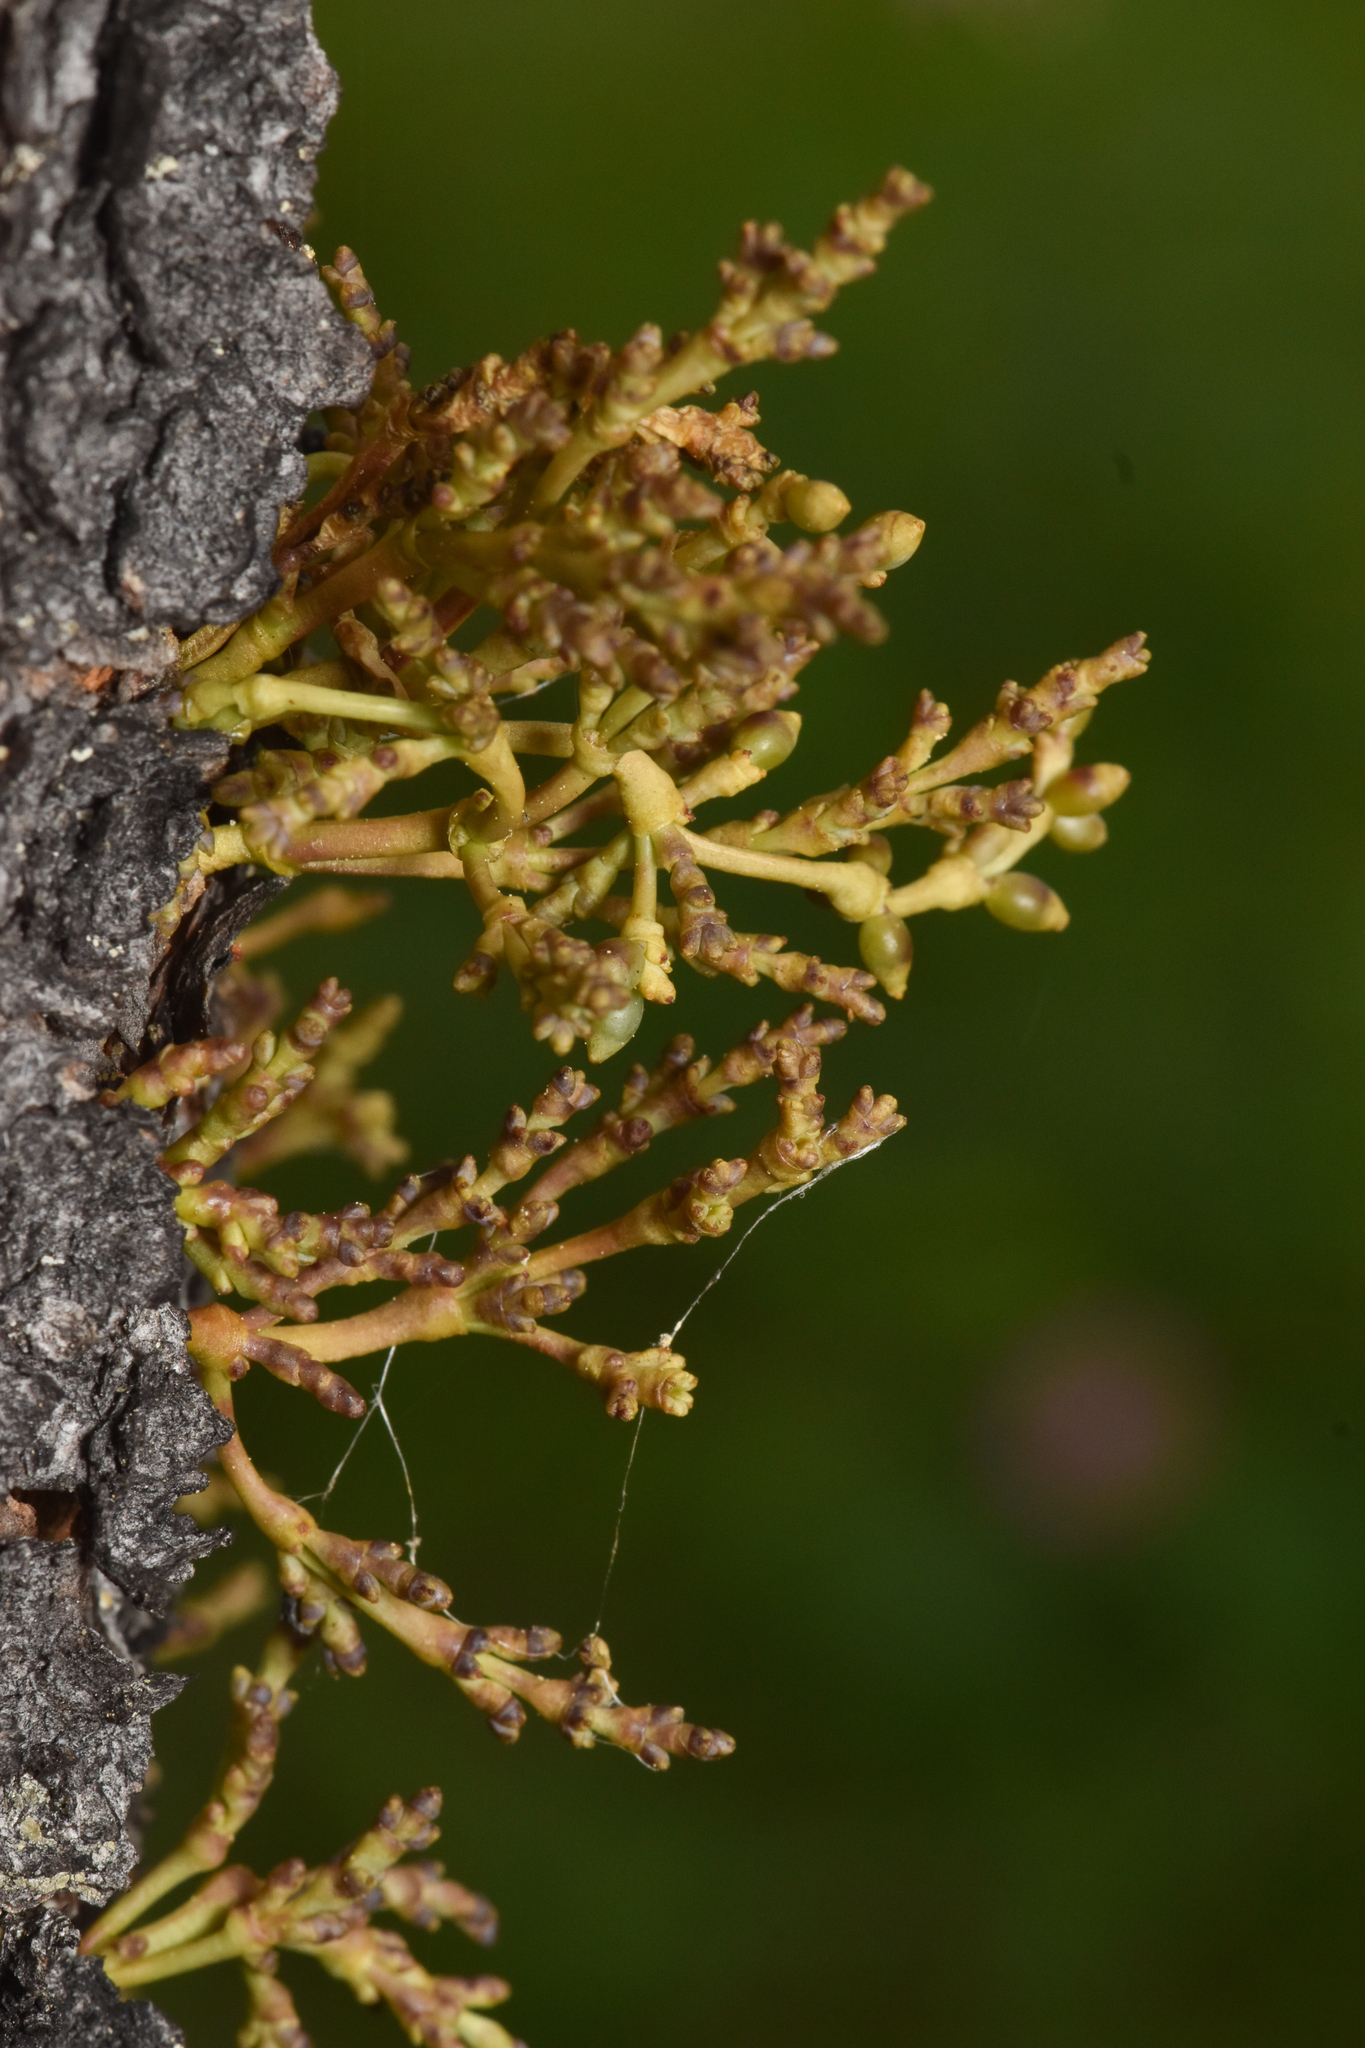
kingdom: Plantae
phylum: Tracheophyta
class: Magnoliopsida
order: Santalales
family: Viscaceae
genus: Arceuthobium
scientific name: Arceuthobium americanum
